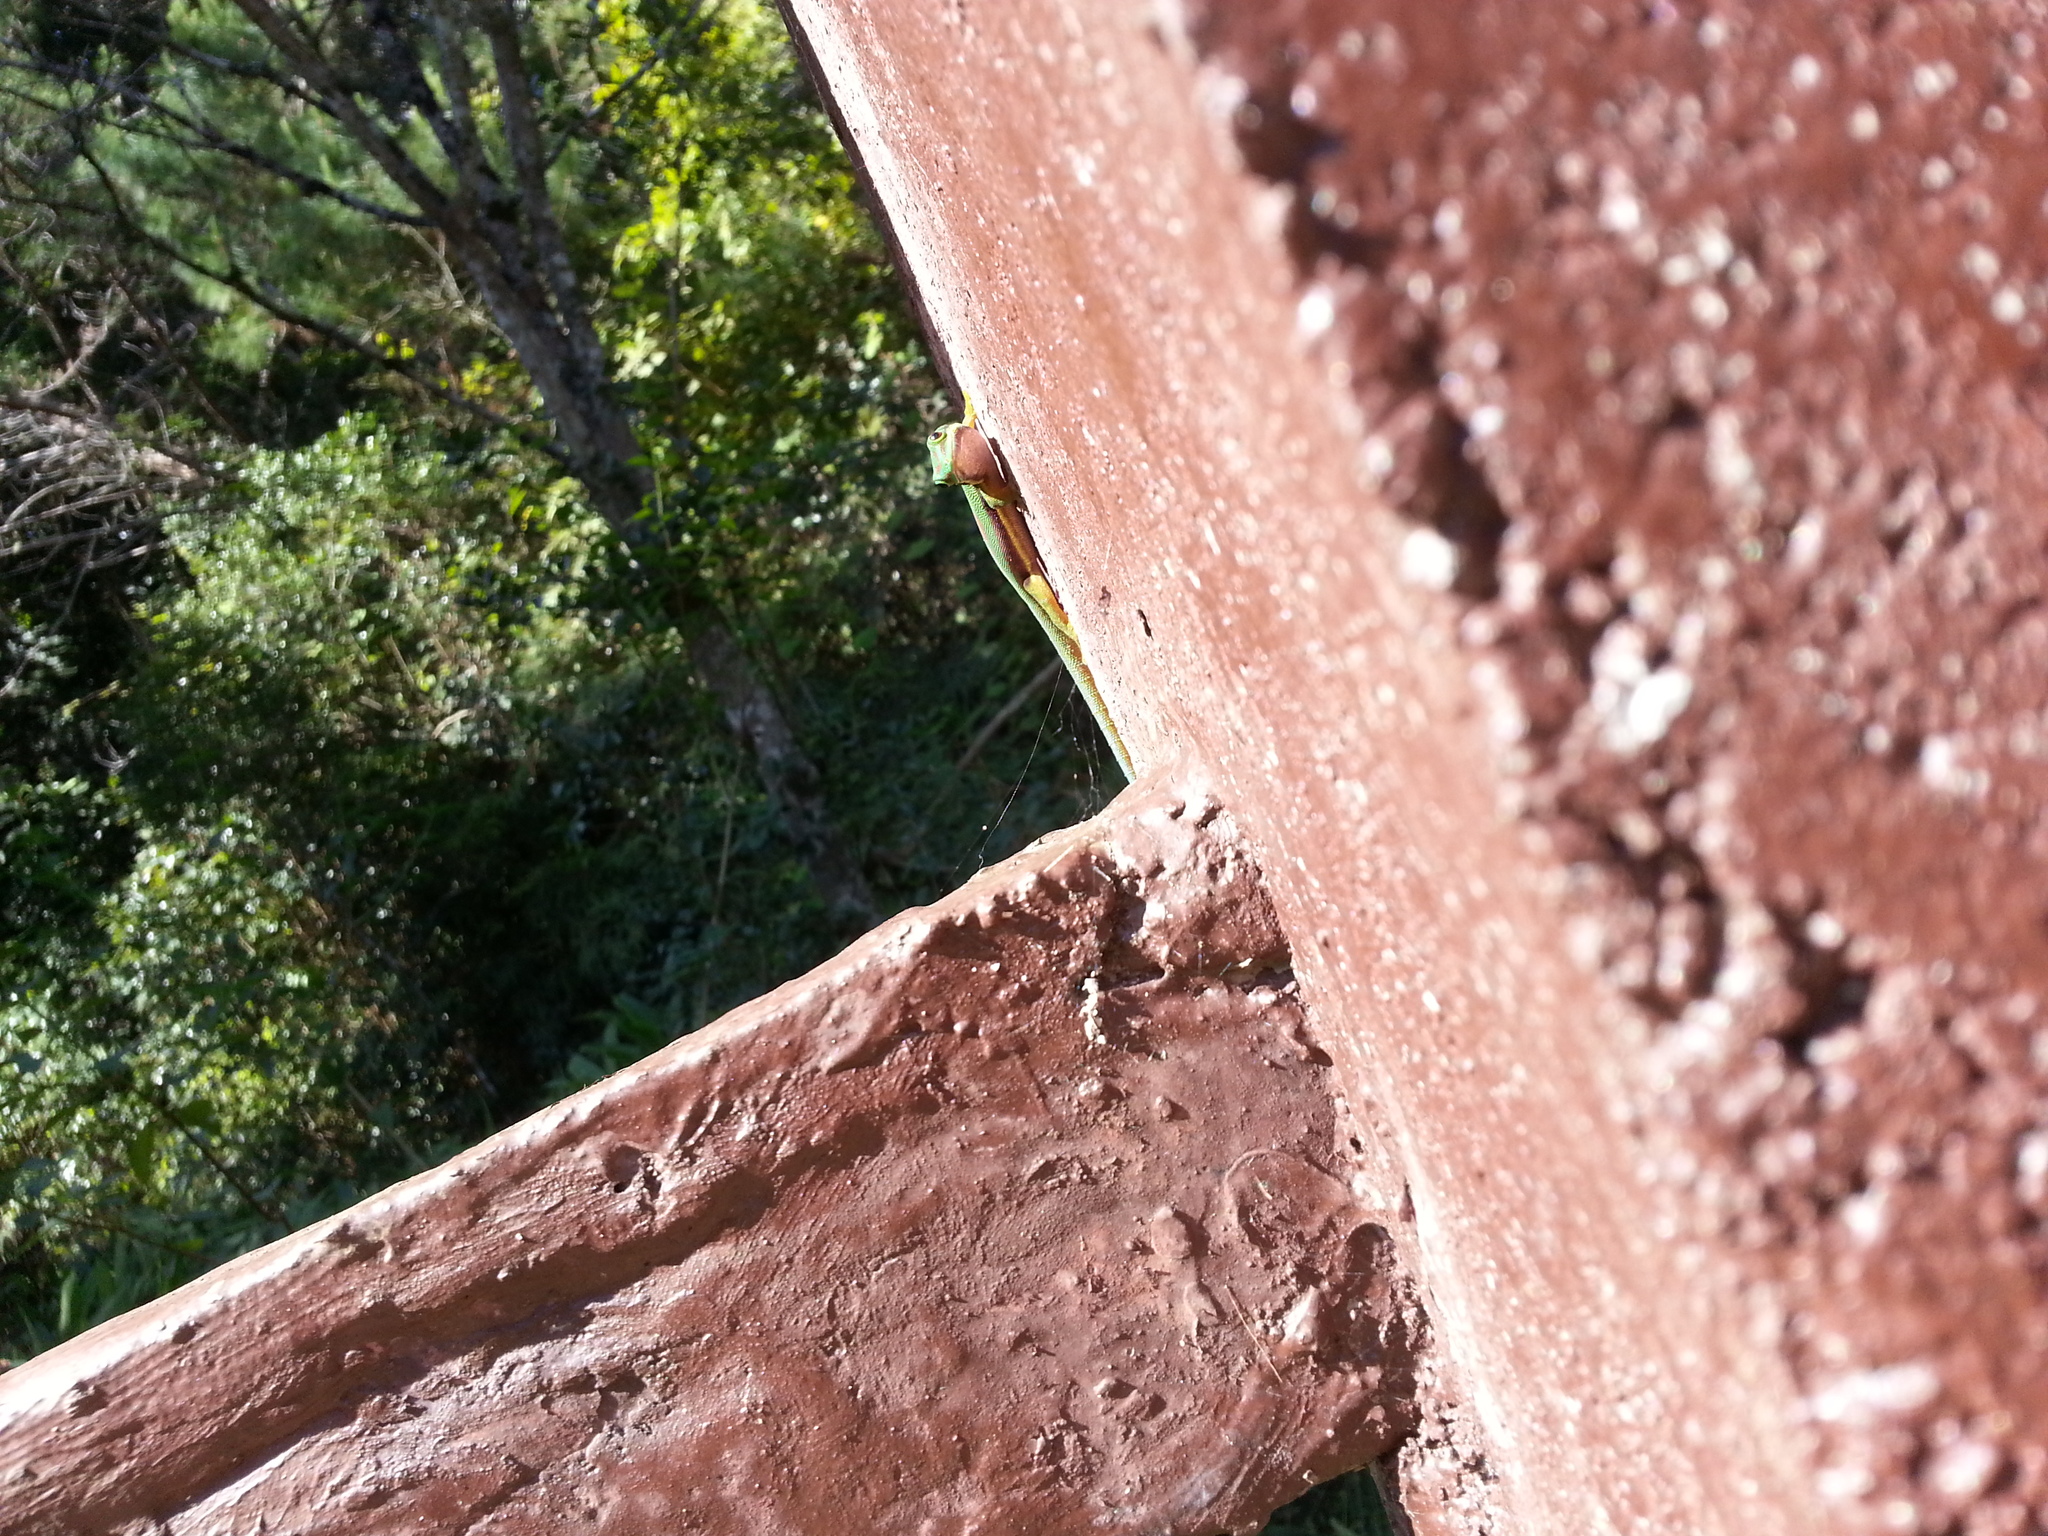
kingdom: Animalia
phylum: Chordata
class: Squamata
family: Gekkonidae
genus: Phelsuma
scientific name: Phelsuma lineata
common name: Lined day gecko
